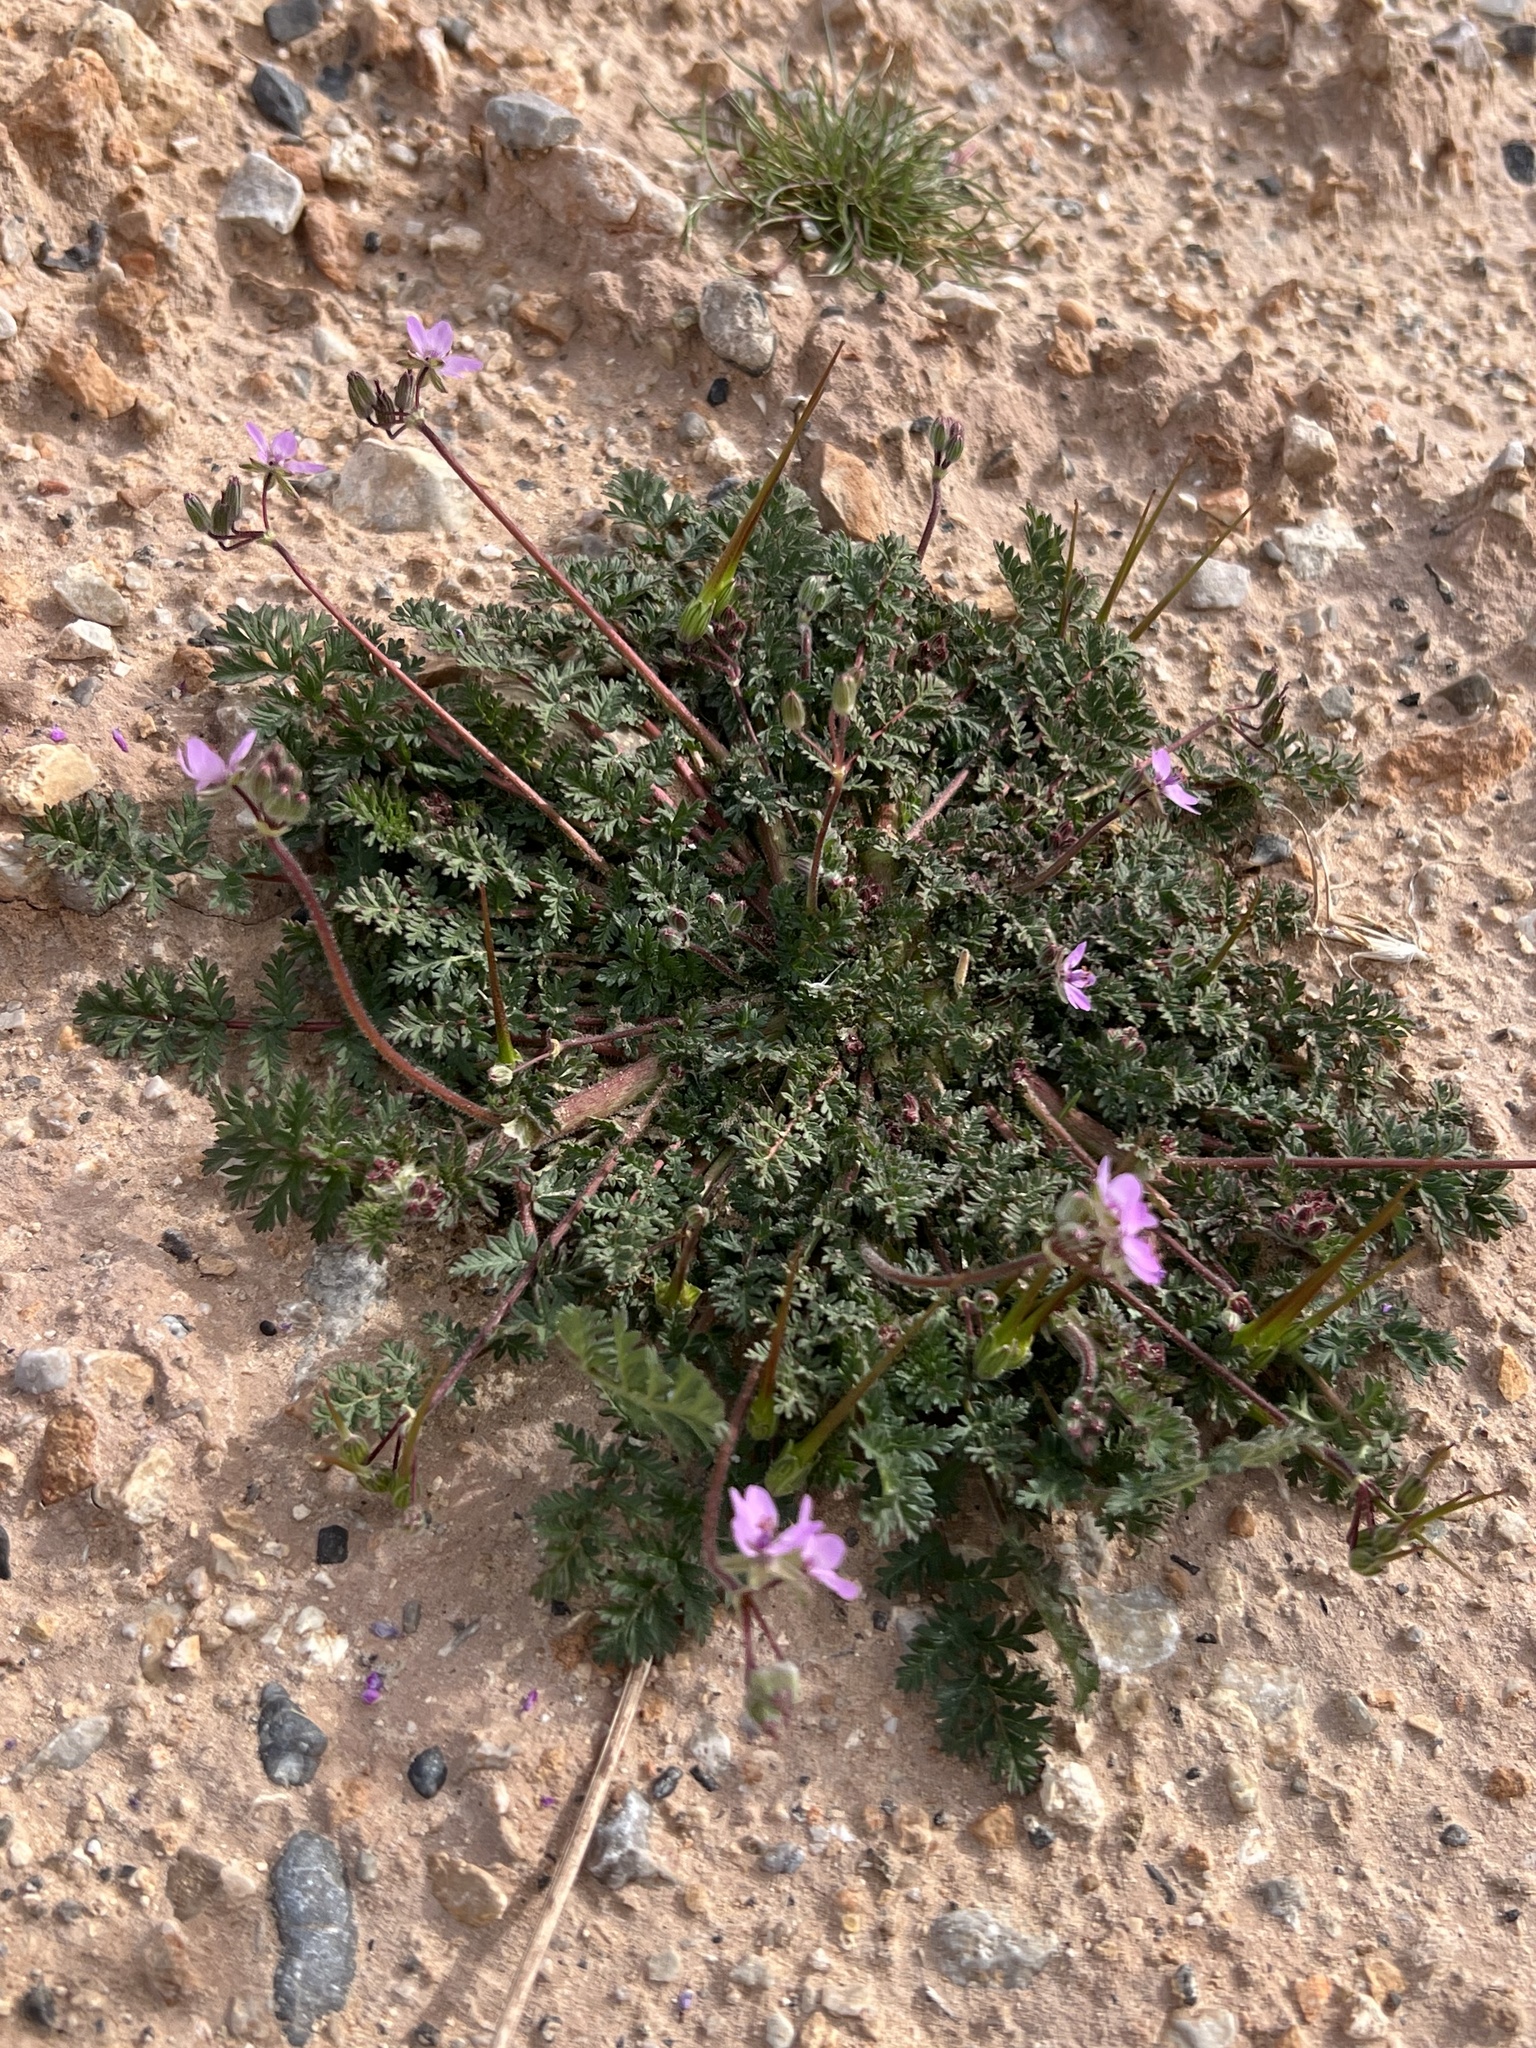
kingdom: Plantae
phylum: Tracheophyta
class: Magnoliopsida
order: Geraniales
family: Geraniaceae
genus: Erodium
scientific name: Erodium cicutarium
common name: Common stork's-bill
